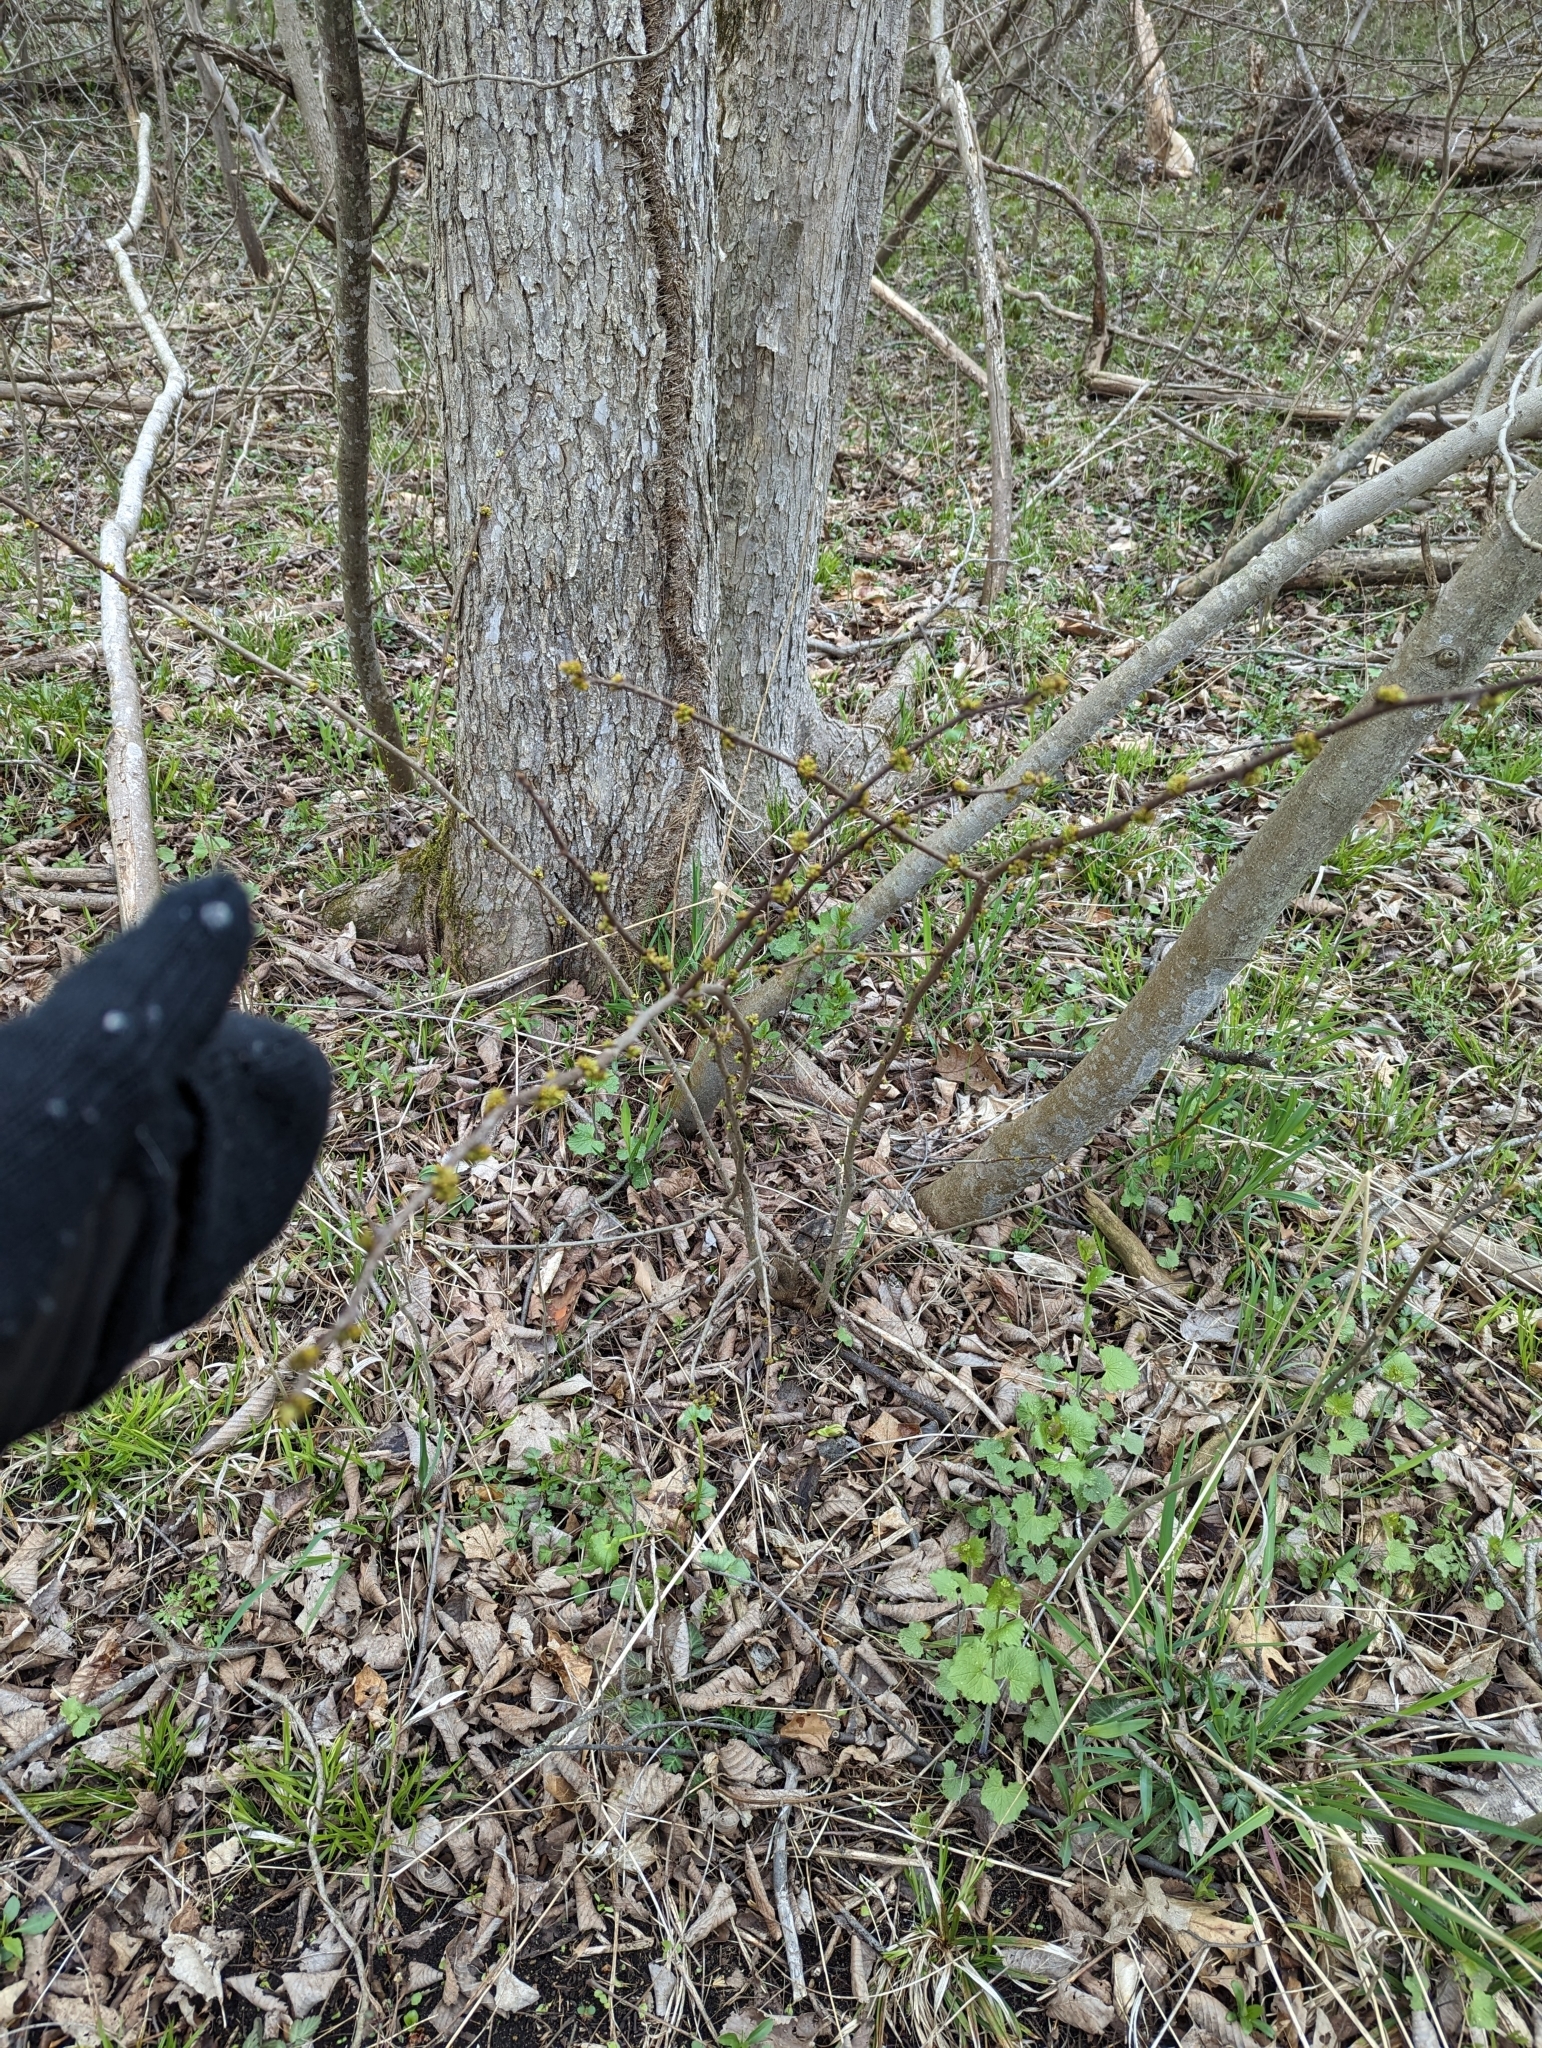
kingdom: Plantae
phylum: Tracheophyta
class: Magnoliopsida
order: Sapindales
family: Rutaceae
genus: Zanthoxylum
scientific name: Zanthoxylum americanum
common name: Northern prickly-ash
